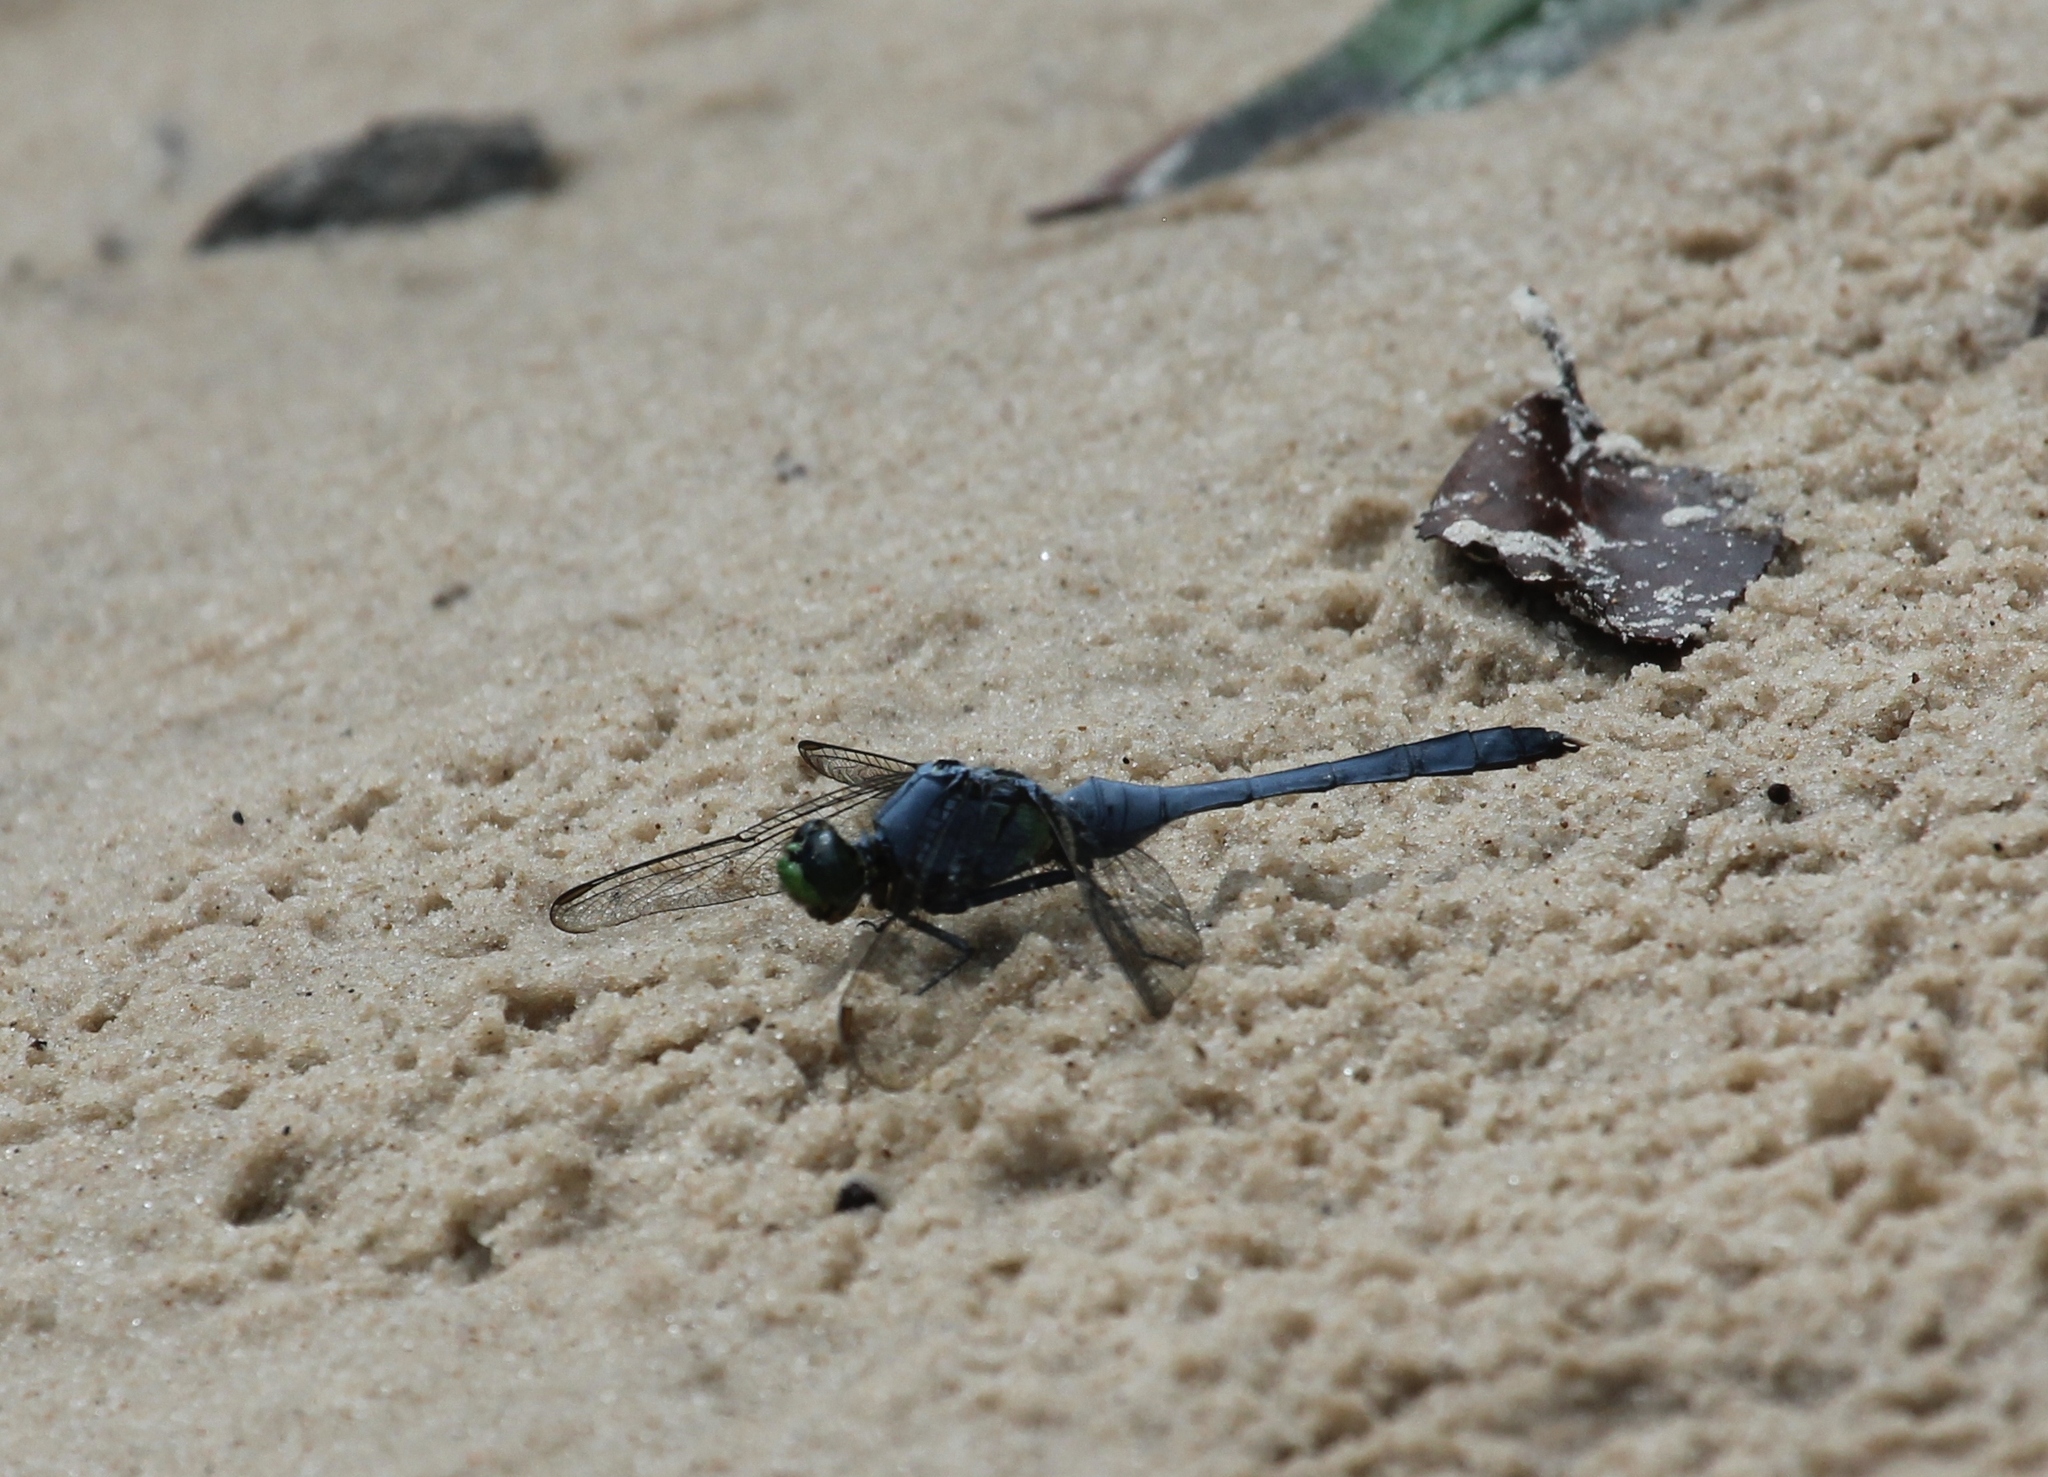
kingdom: Animalia
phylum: Arthropoda
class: Insecta
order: Odonata
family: Libellulidae
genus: Erythemis
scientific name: Erythemis simplicicollis
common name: Eastern pondhawk
